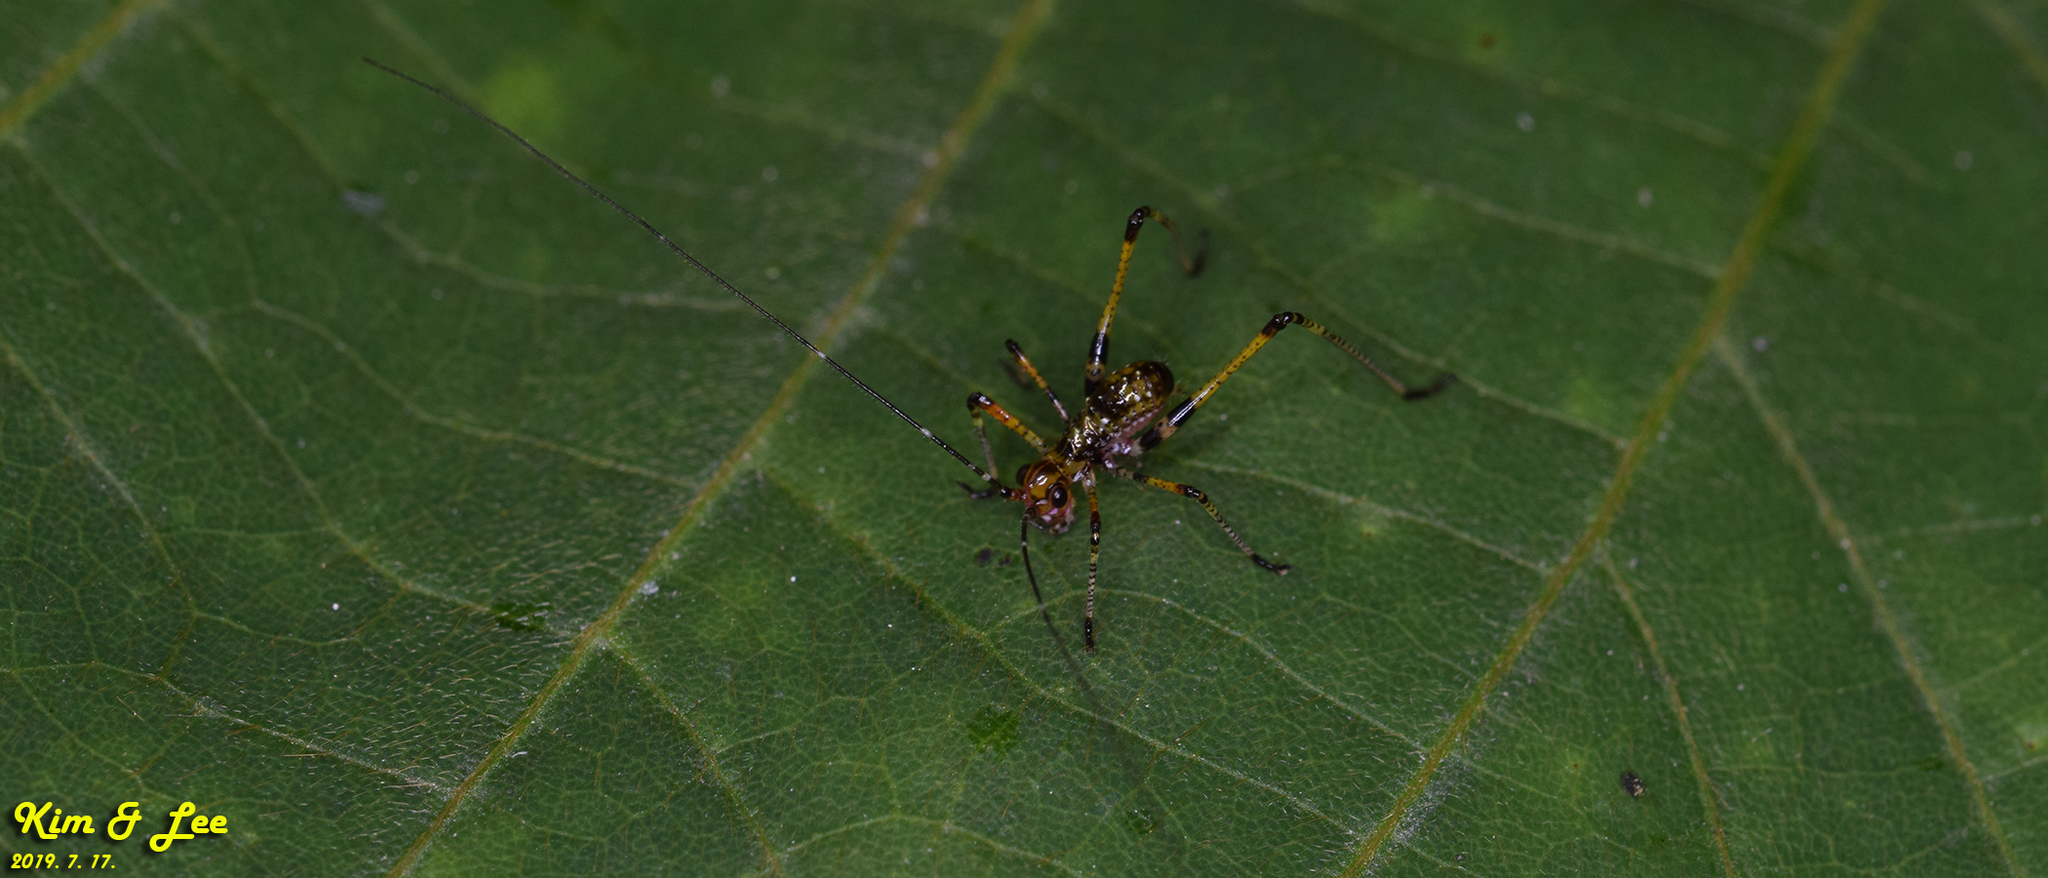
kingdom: Animalia
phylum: Arthropoda
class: Insecta
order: Orthoptera
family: Tettigoniidae
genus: Phaneroptera
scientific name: Phaneroptera nigroantennata
